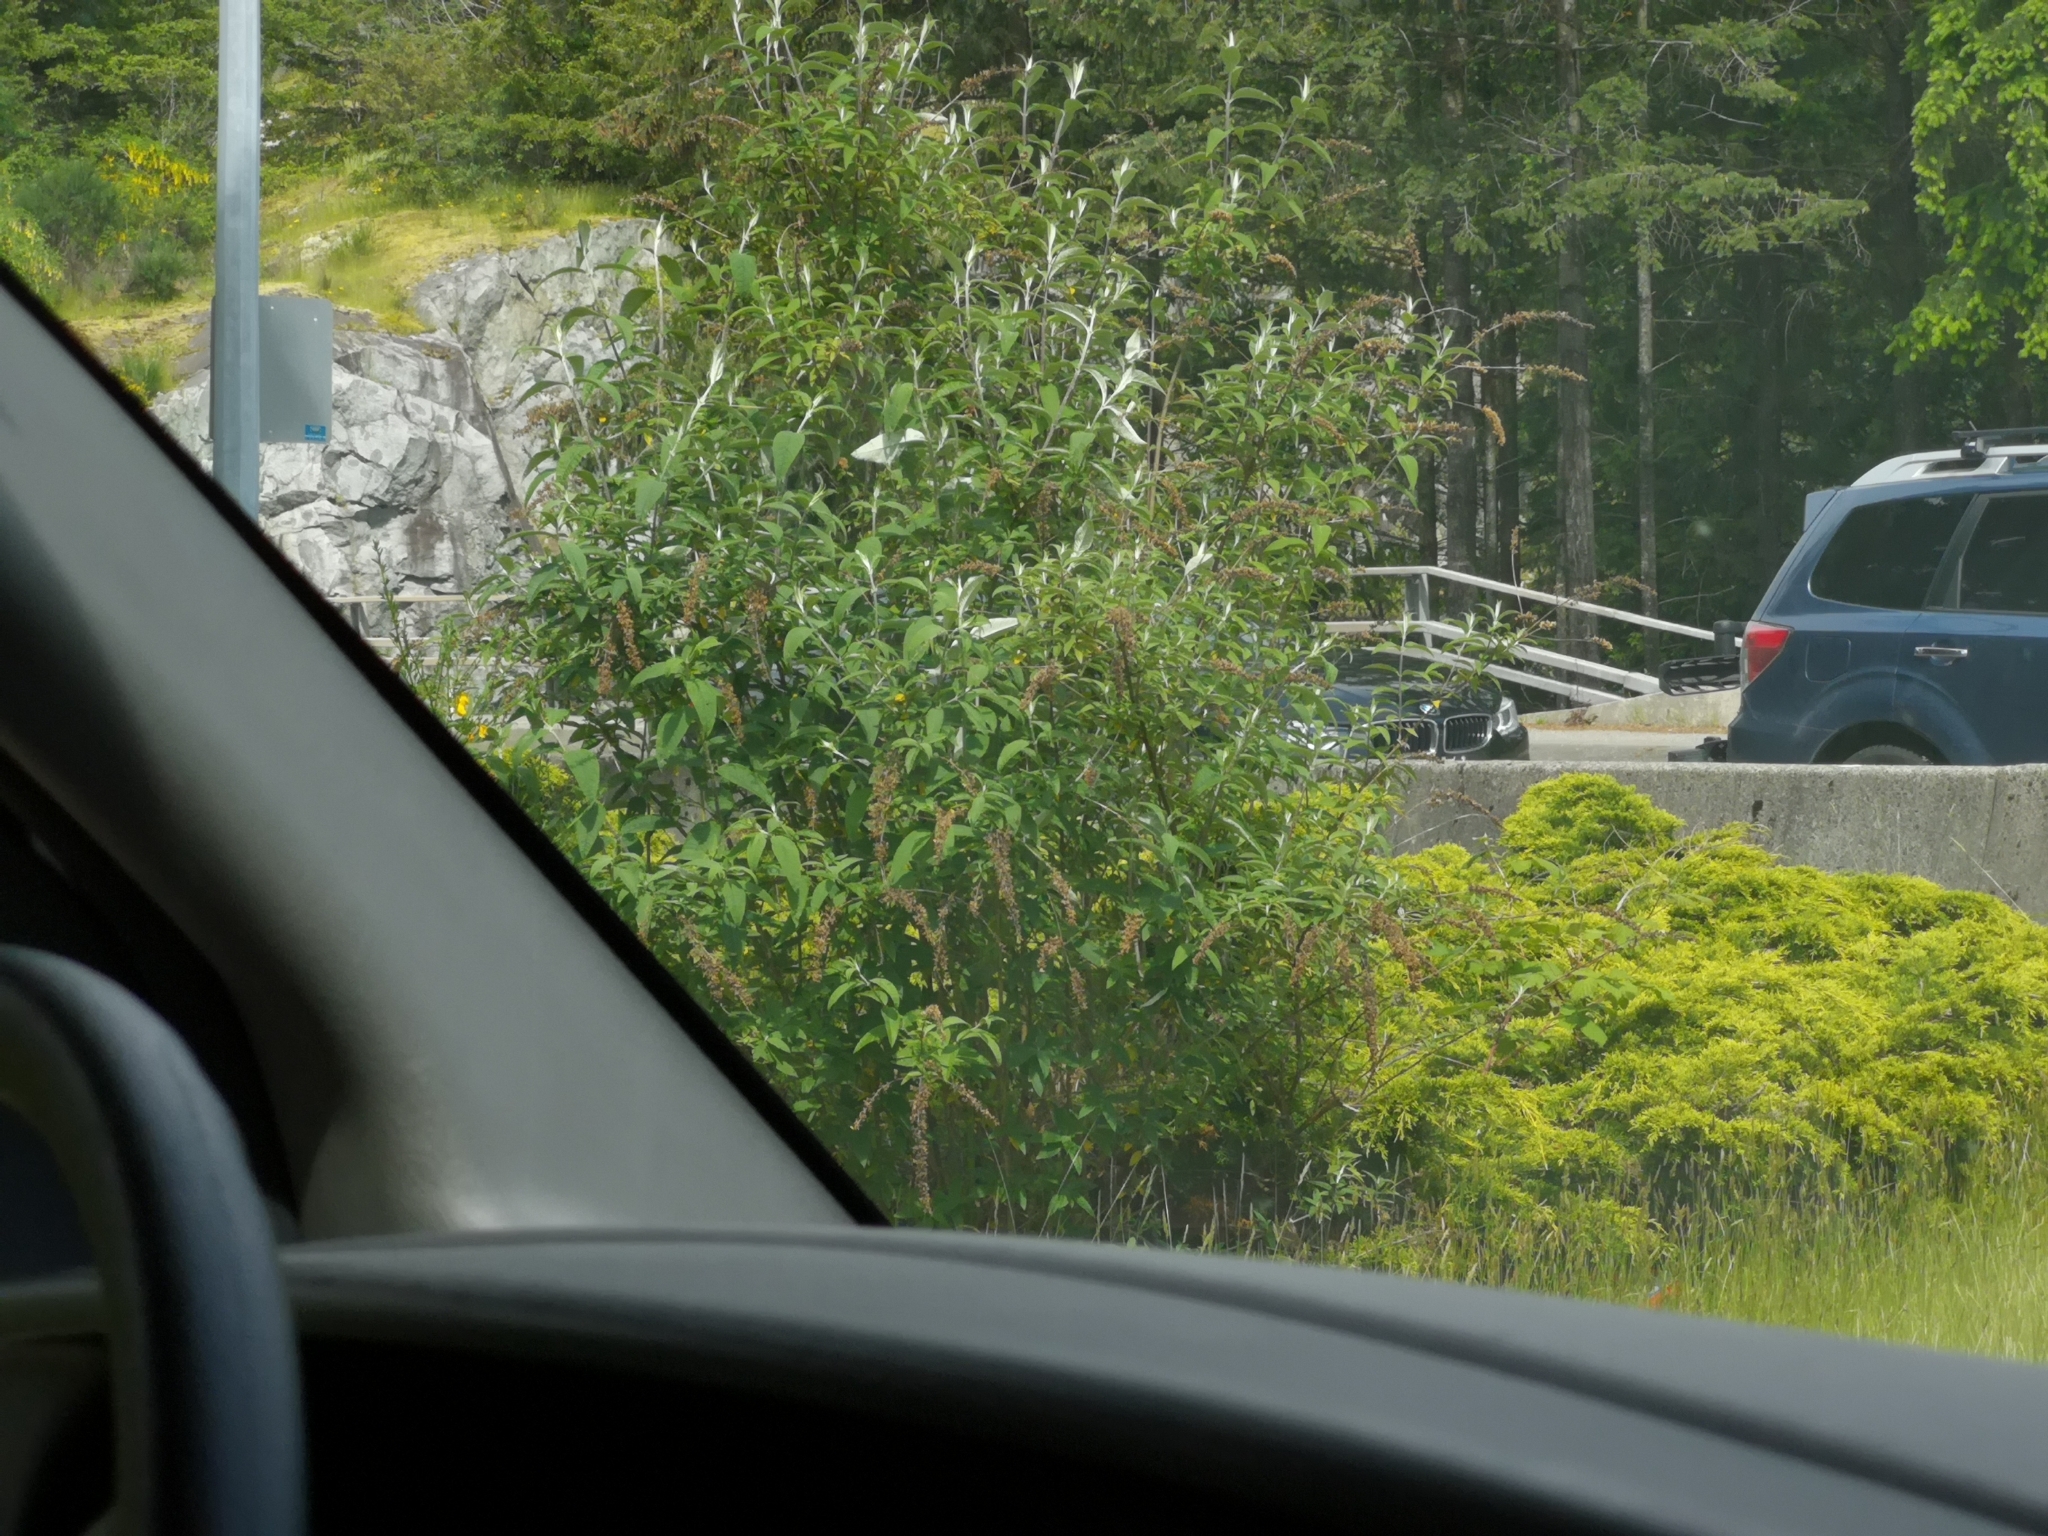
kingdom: Plantae
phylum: Tracheophyta
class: Magnoliopsida
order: Lamiales
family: Scrophulariaceae
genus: Buddleja
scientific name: Buddleja davidii
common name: Butterfly-bush
